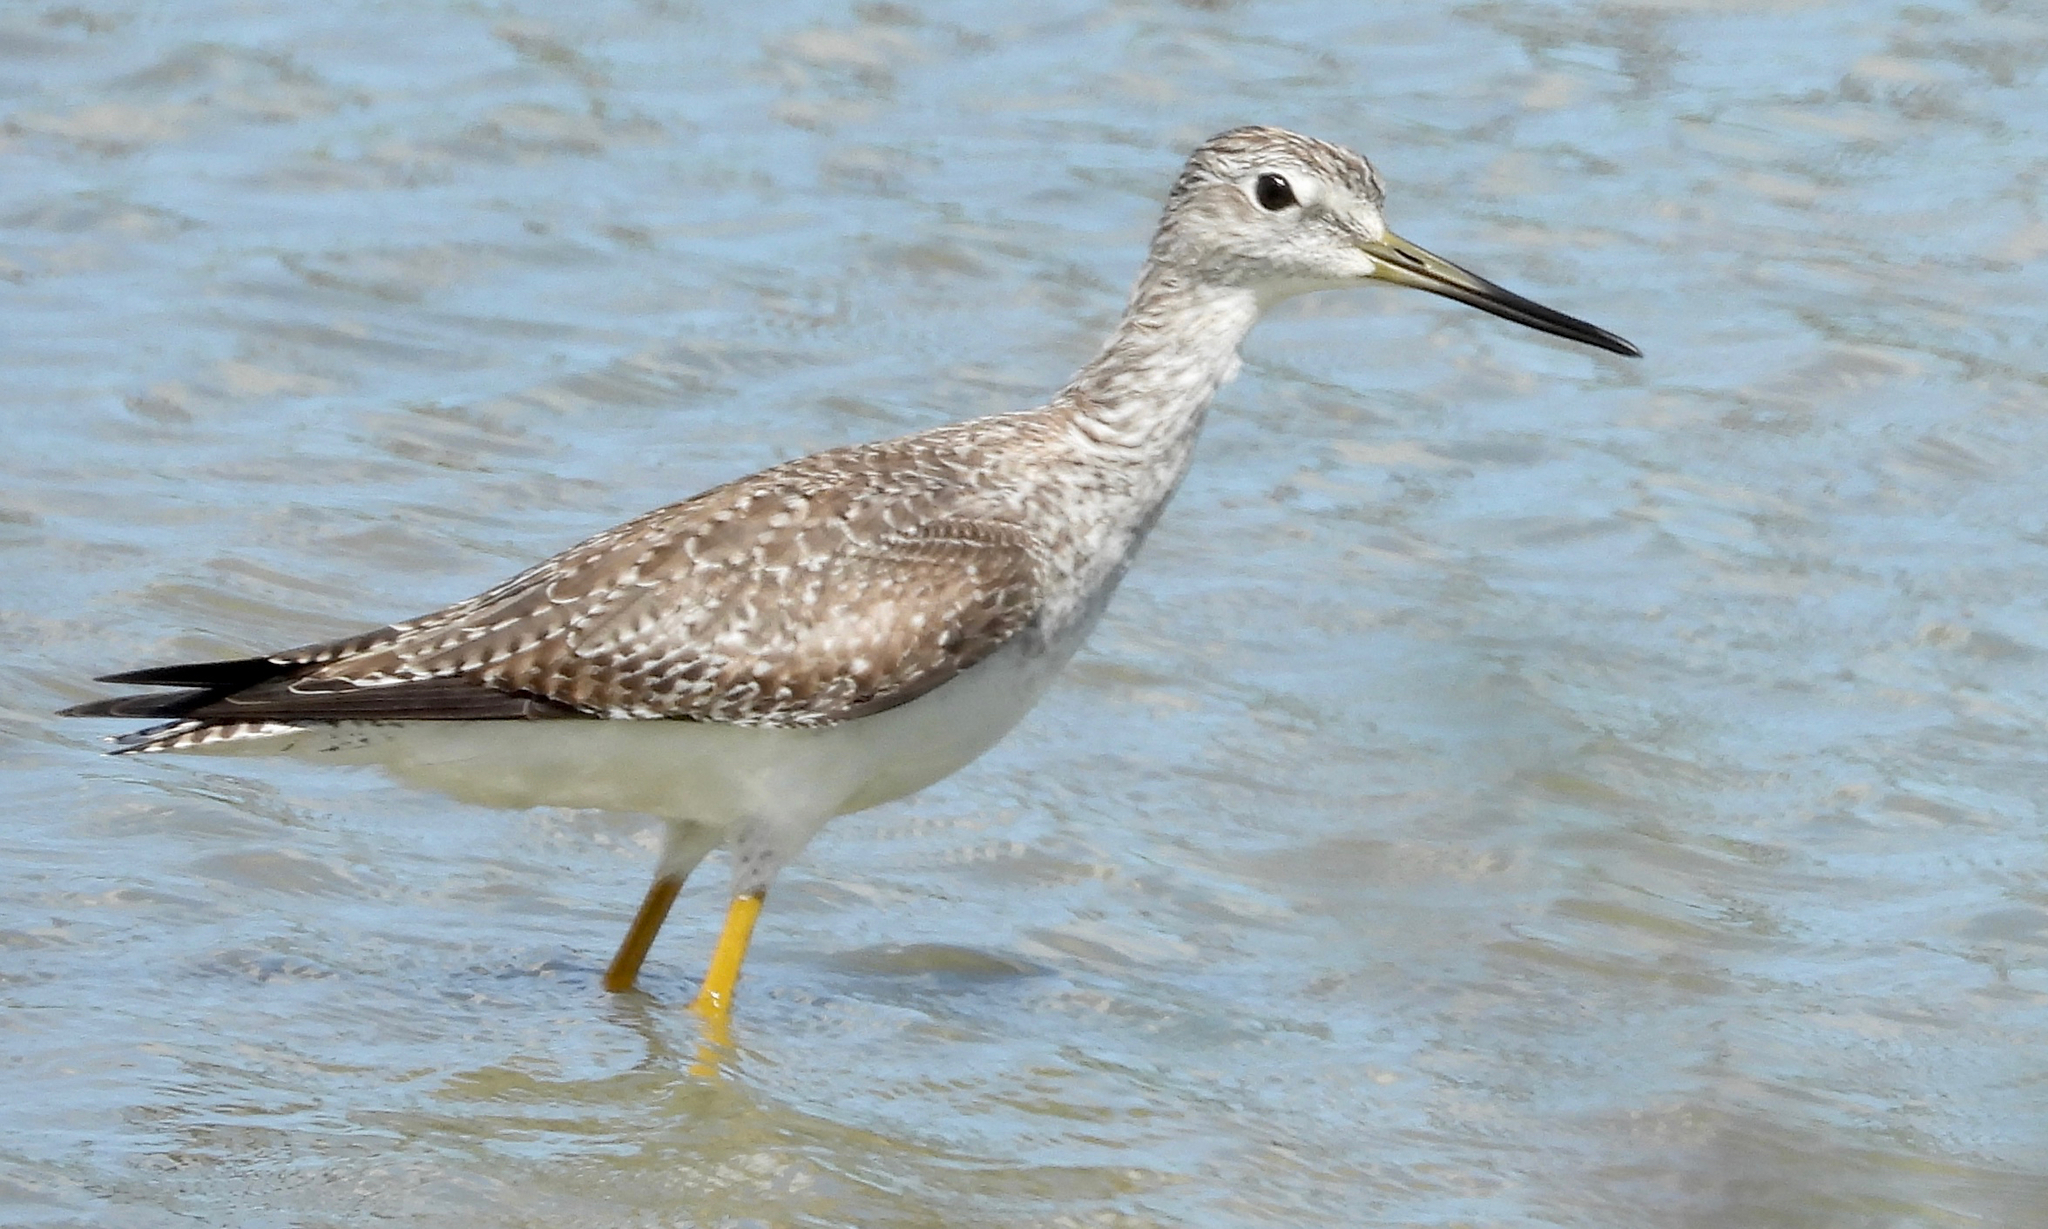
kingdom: Animalia
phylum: Chordata
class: Aves
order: Charadriiformes
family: Scolopacidae
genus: Tringa
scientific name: Tringa melanoleuca
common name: Greater yellowlegs
